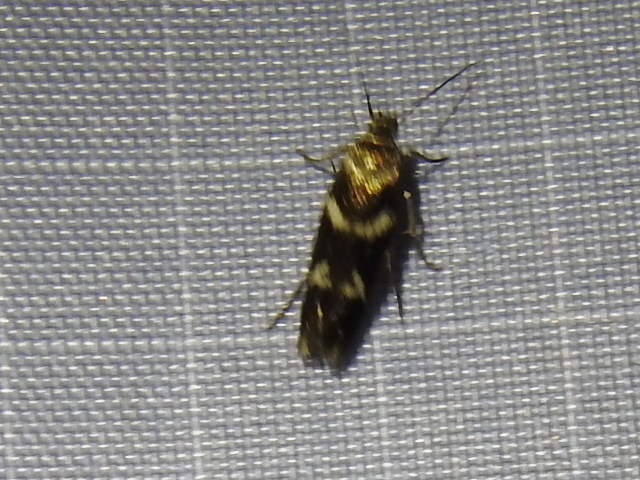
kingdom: Animalia
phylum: Arthropoda
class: Insecta
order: Lepidoptera
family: Scythrididae
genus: Scythris
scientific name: Scythris trivinctella
